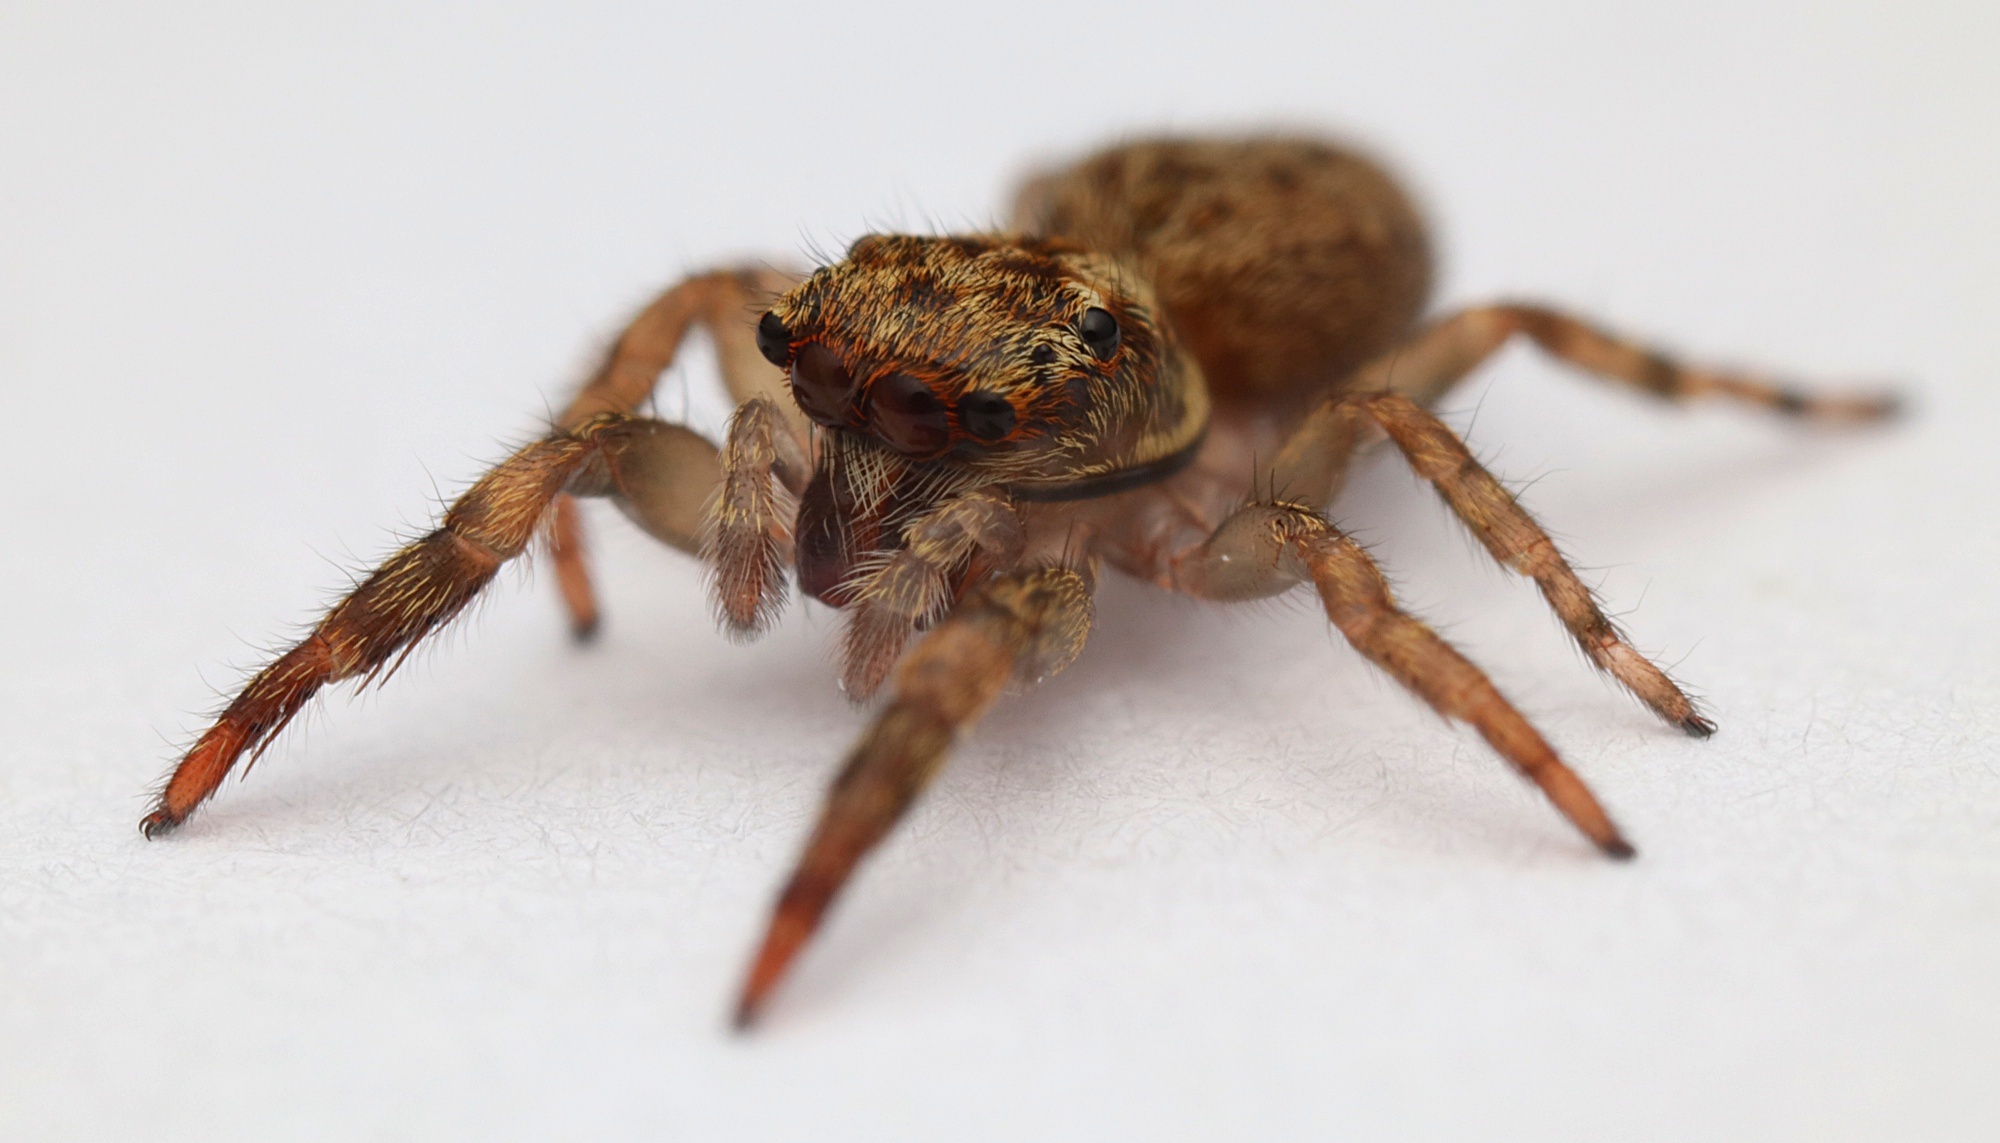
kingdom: Animalia
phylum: Arthropoda
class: Arachnida
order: Araneae
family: Salticidae
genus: Trite
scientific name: Trite auricoma
